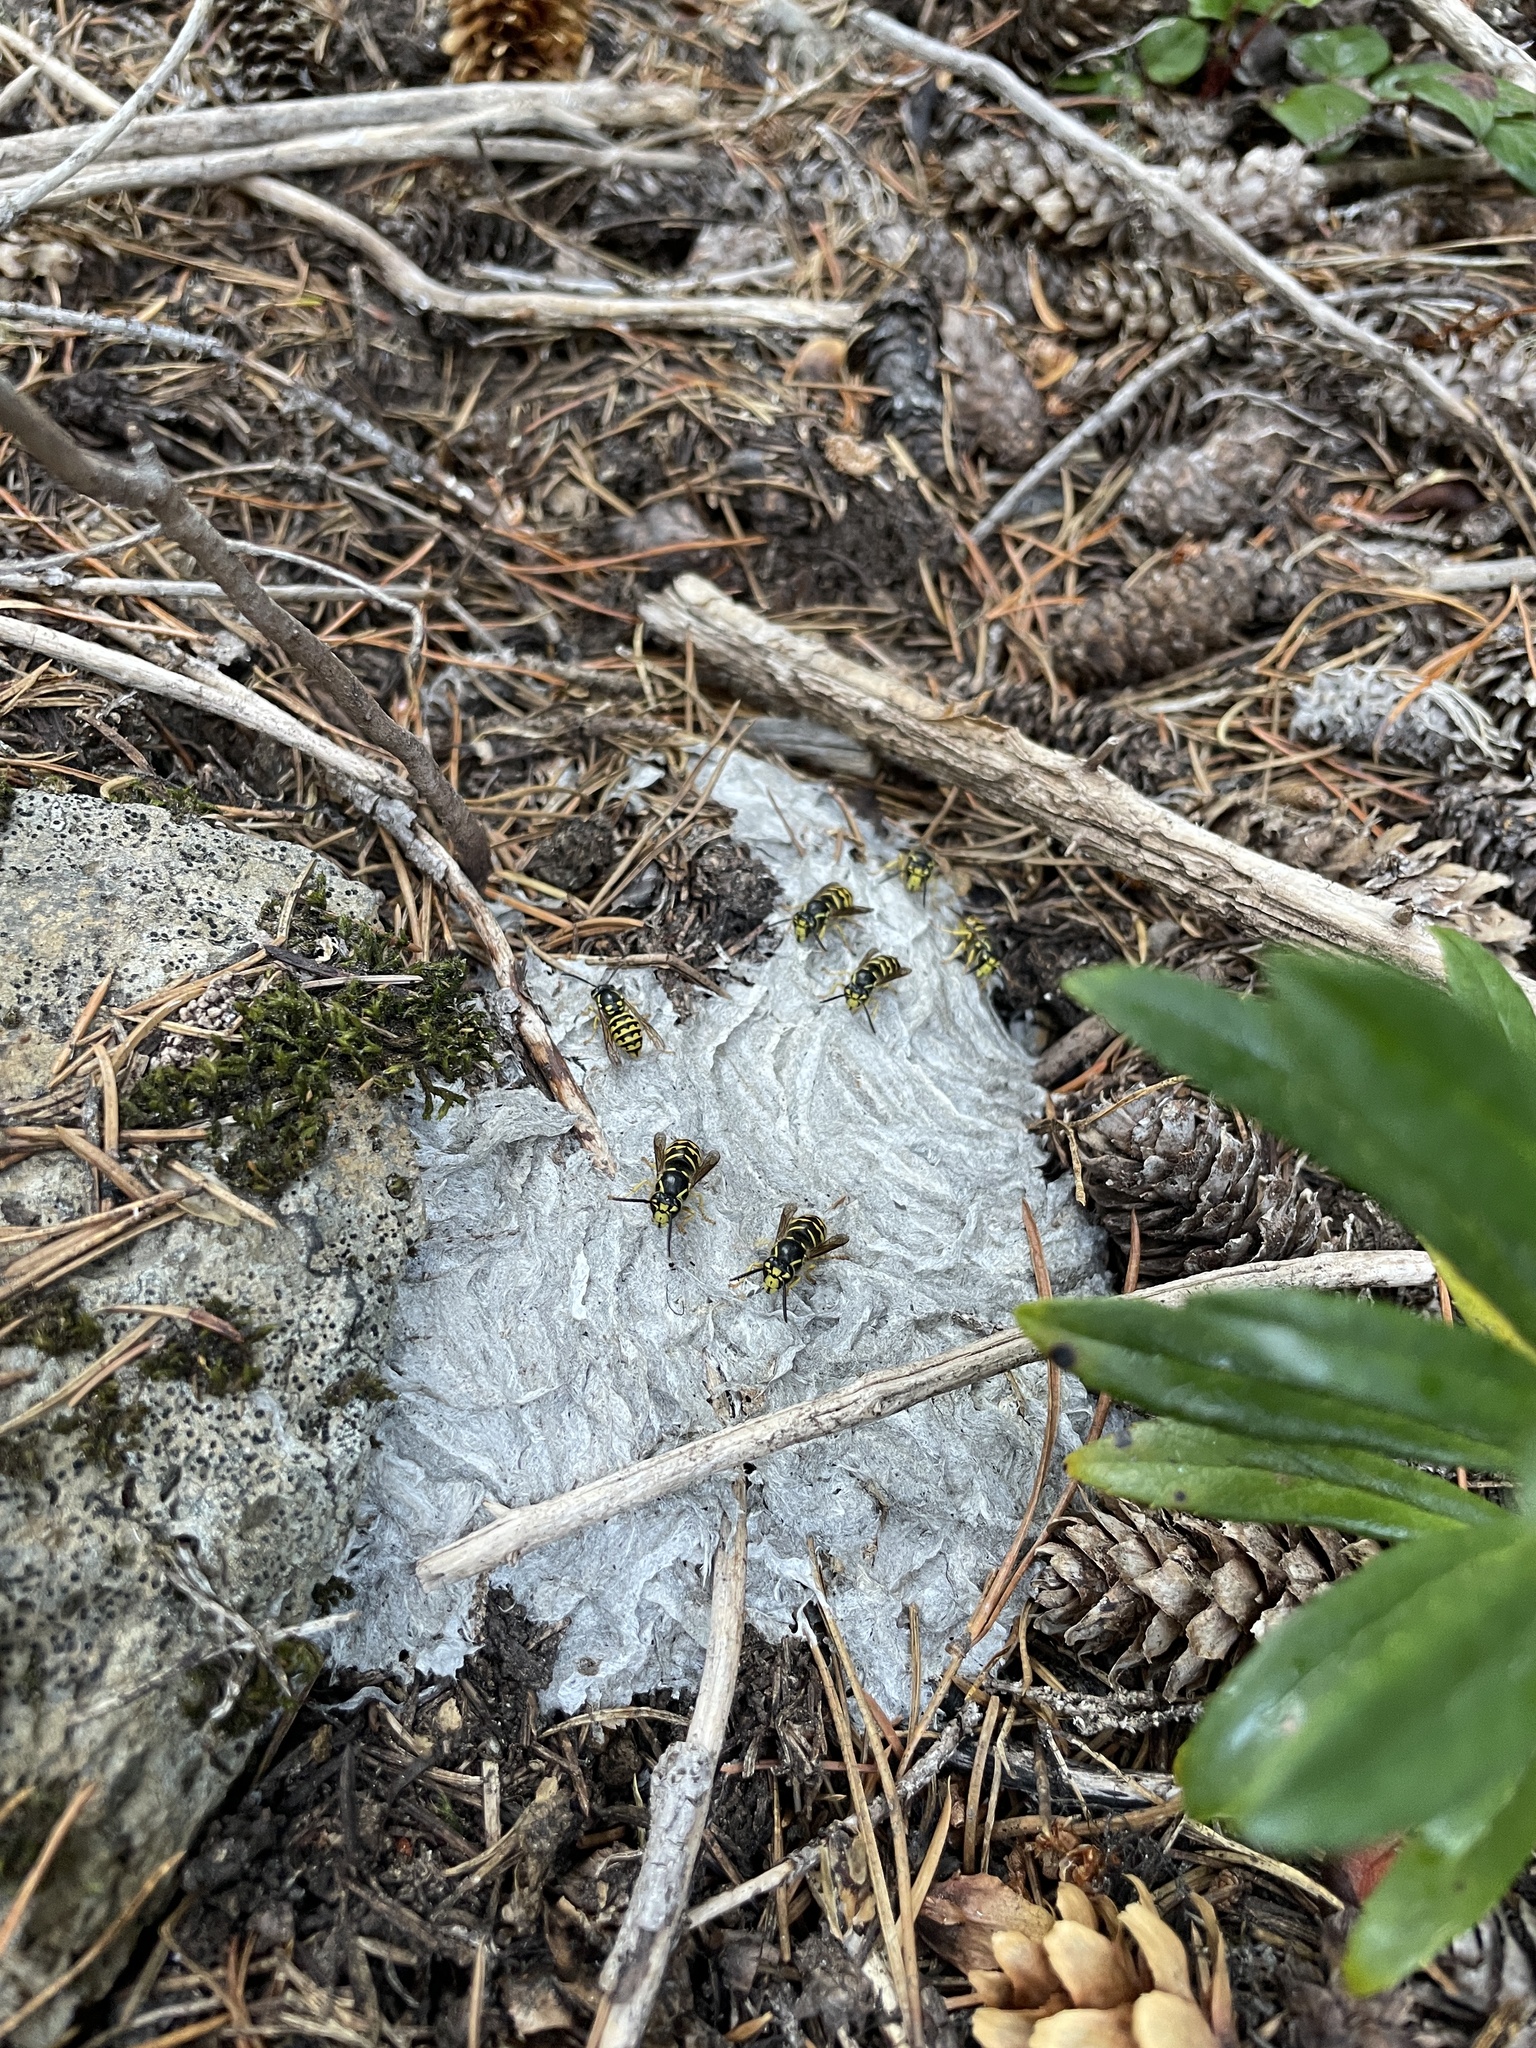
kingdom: Animalia
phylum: Arthropoda
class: Insecta
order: Hymenoptera
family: Vespidae
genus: Dolichovespula
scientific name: Dolichovespula arenaria
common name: Aerial yellowjacket
